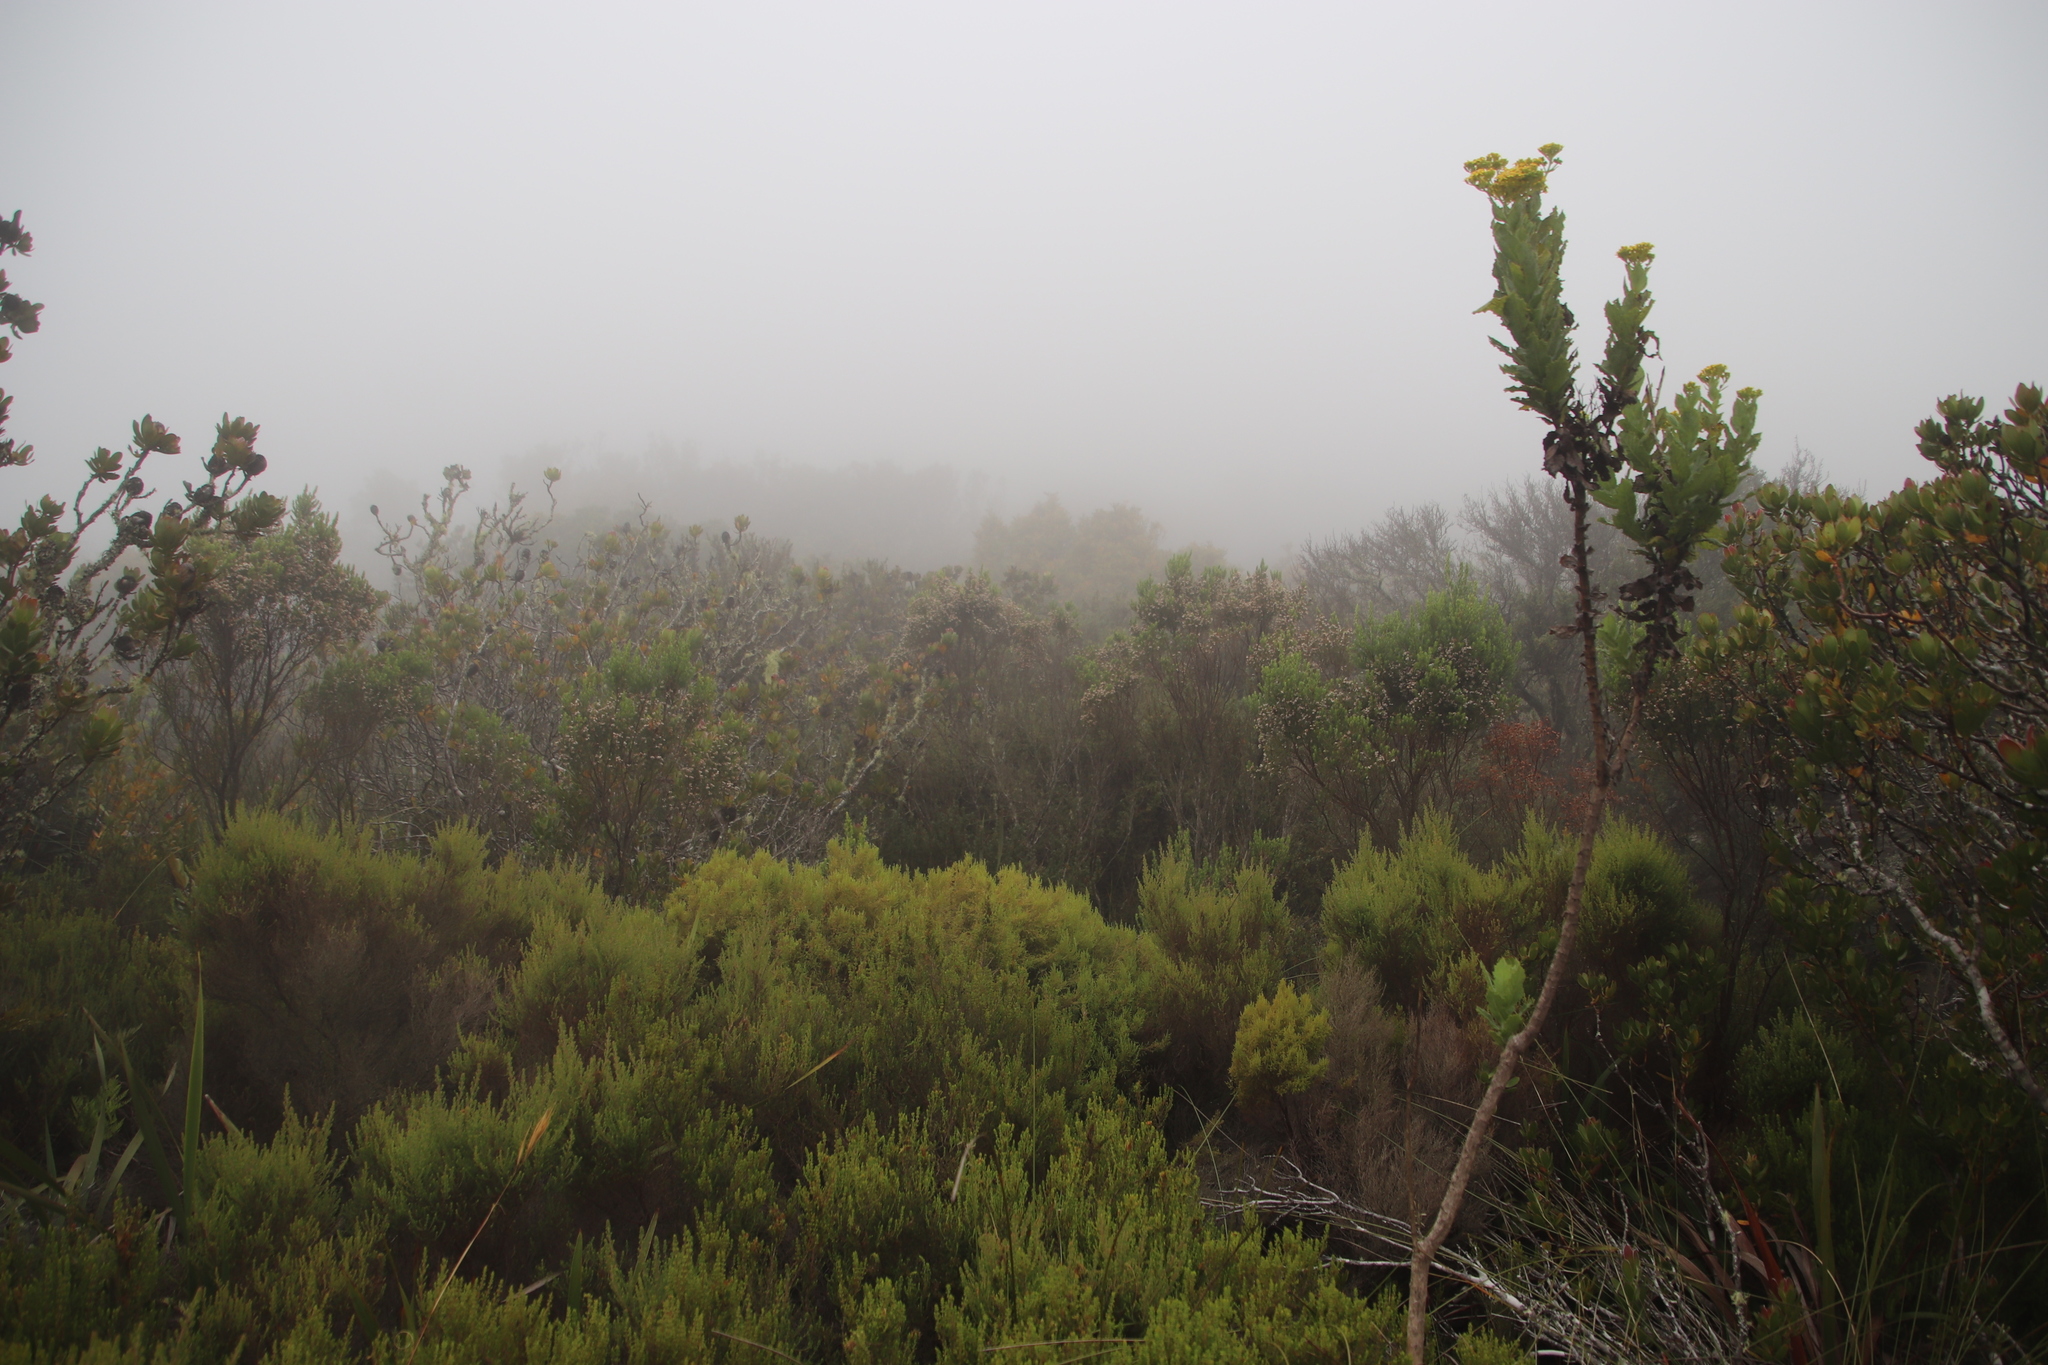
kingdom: Plantae
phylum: Tracheophyta
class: Magnoliopsida
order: Ericales
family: Ericaceae
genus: Erica
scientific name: Erica triflora
